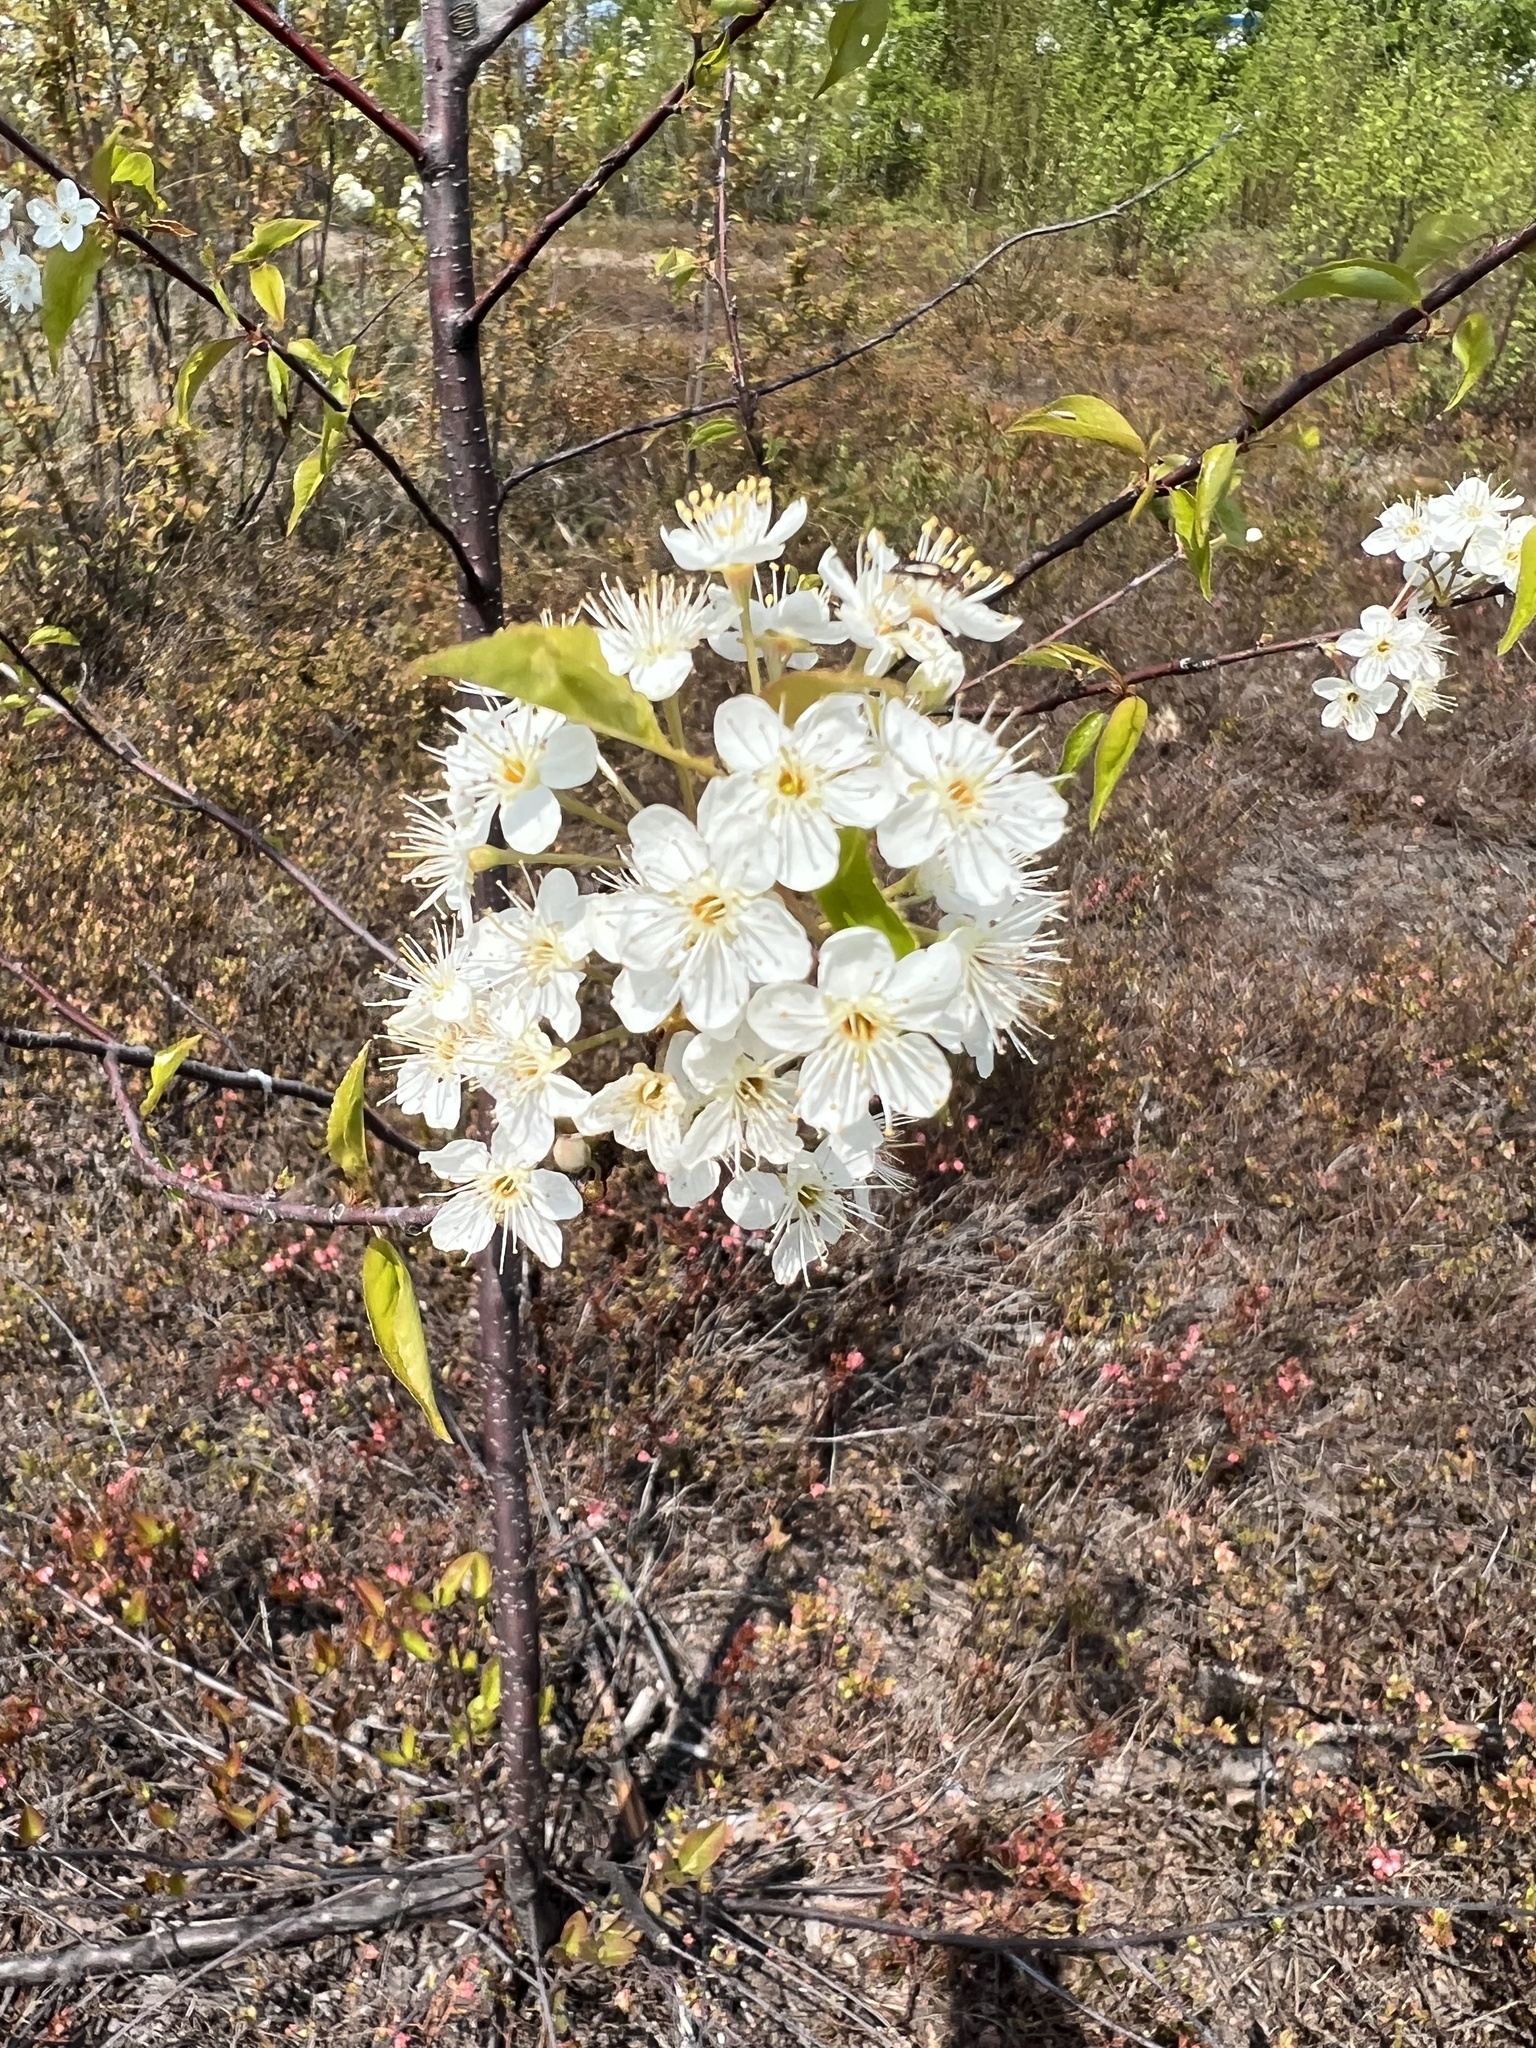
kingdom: Plantae
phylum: Tracheophyta
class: Magnoliopsida
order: Rosales
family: Rosaceae
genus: Prunus
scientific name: Prunus pensylvanica
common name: Pin cherry
